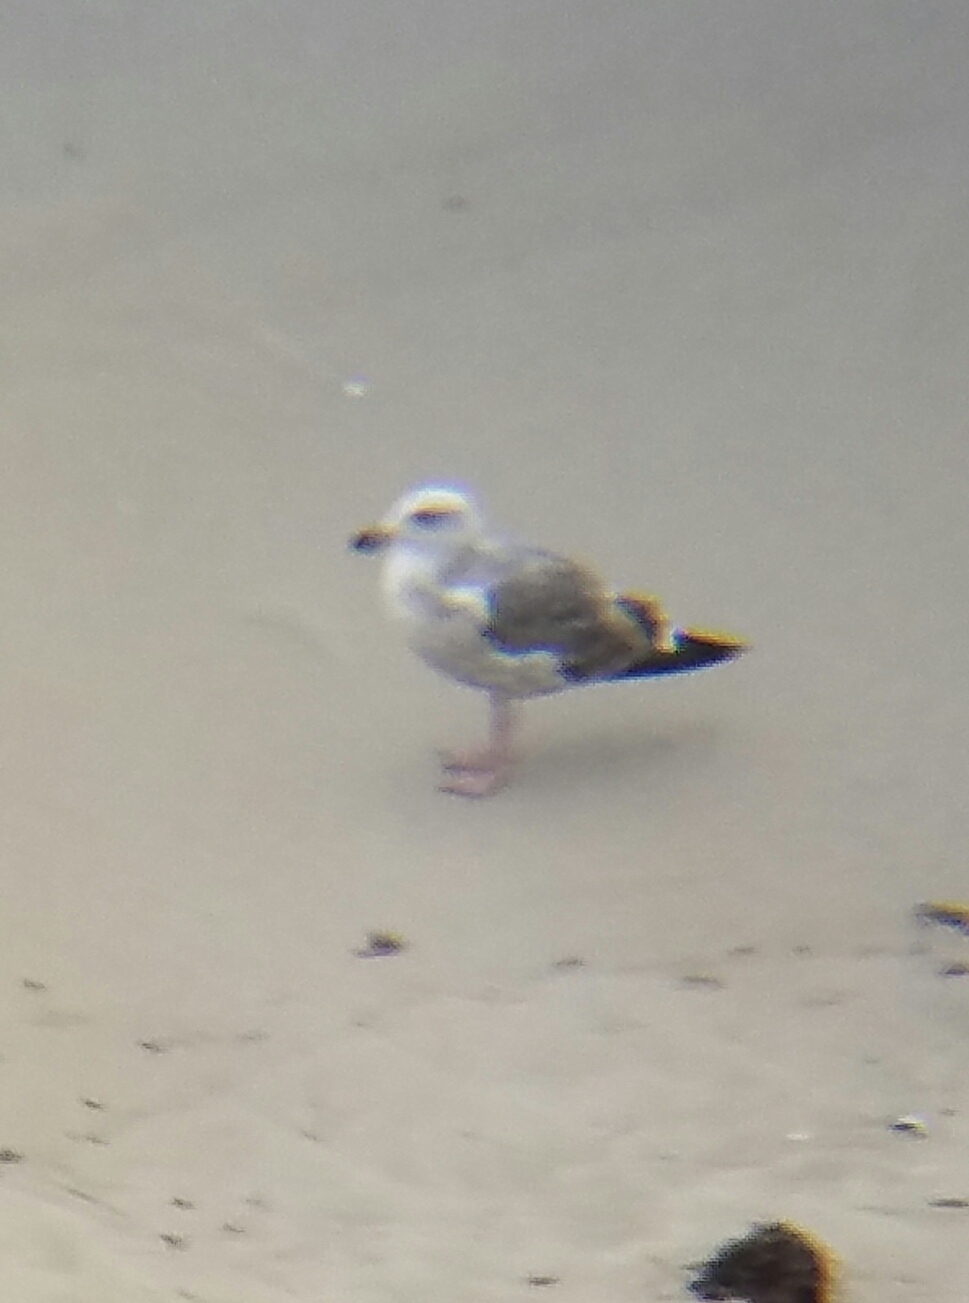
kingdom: Animalia
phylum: Chordata
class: Aves
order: Charadriiformes
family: Laridae
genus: Larus
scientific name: Larus occidentalis
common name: Western gull
